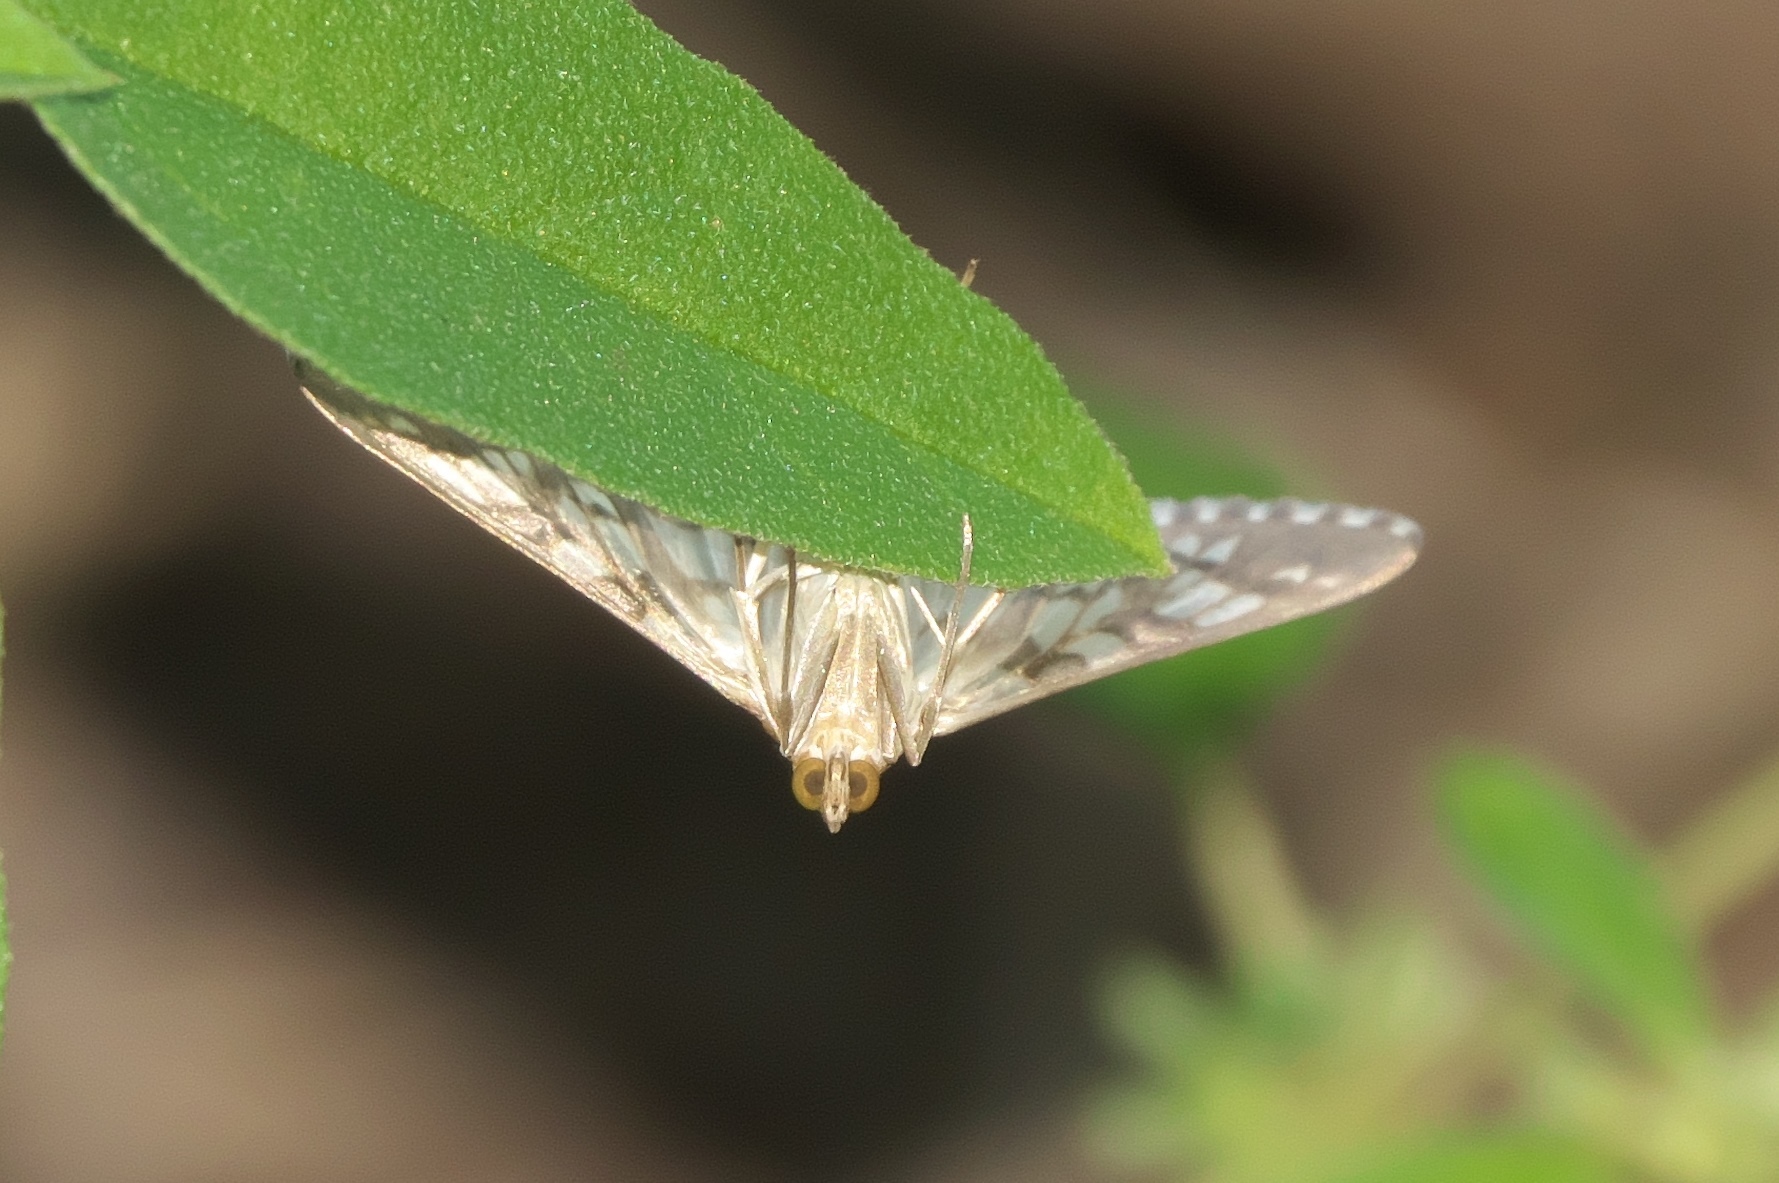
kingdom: Animalia
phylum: Arthropoda
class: Insecta
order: Lepidoptera
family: Crambidae
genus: Epipagis
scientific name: Epipagis fenestralis
